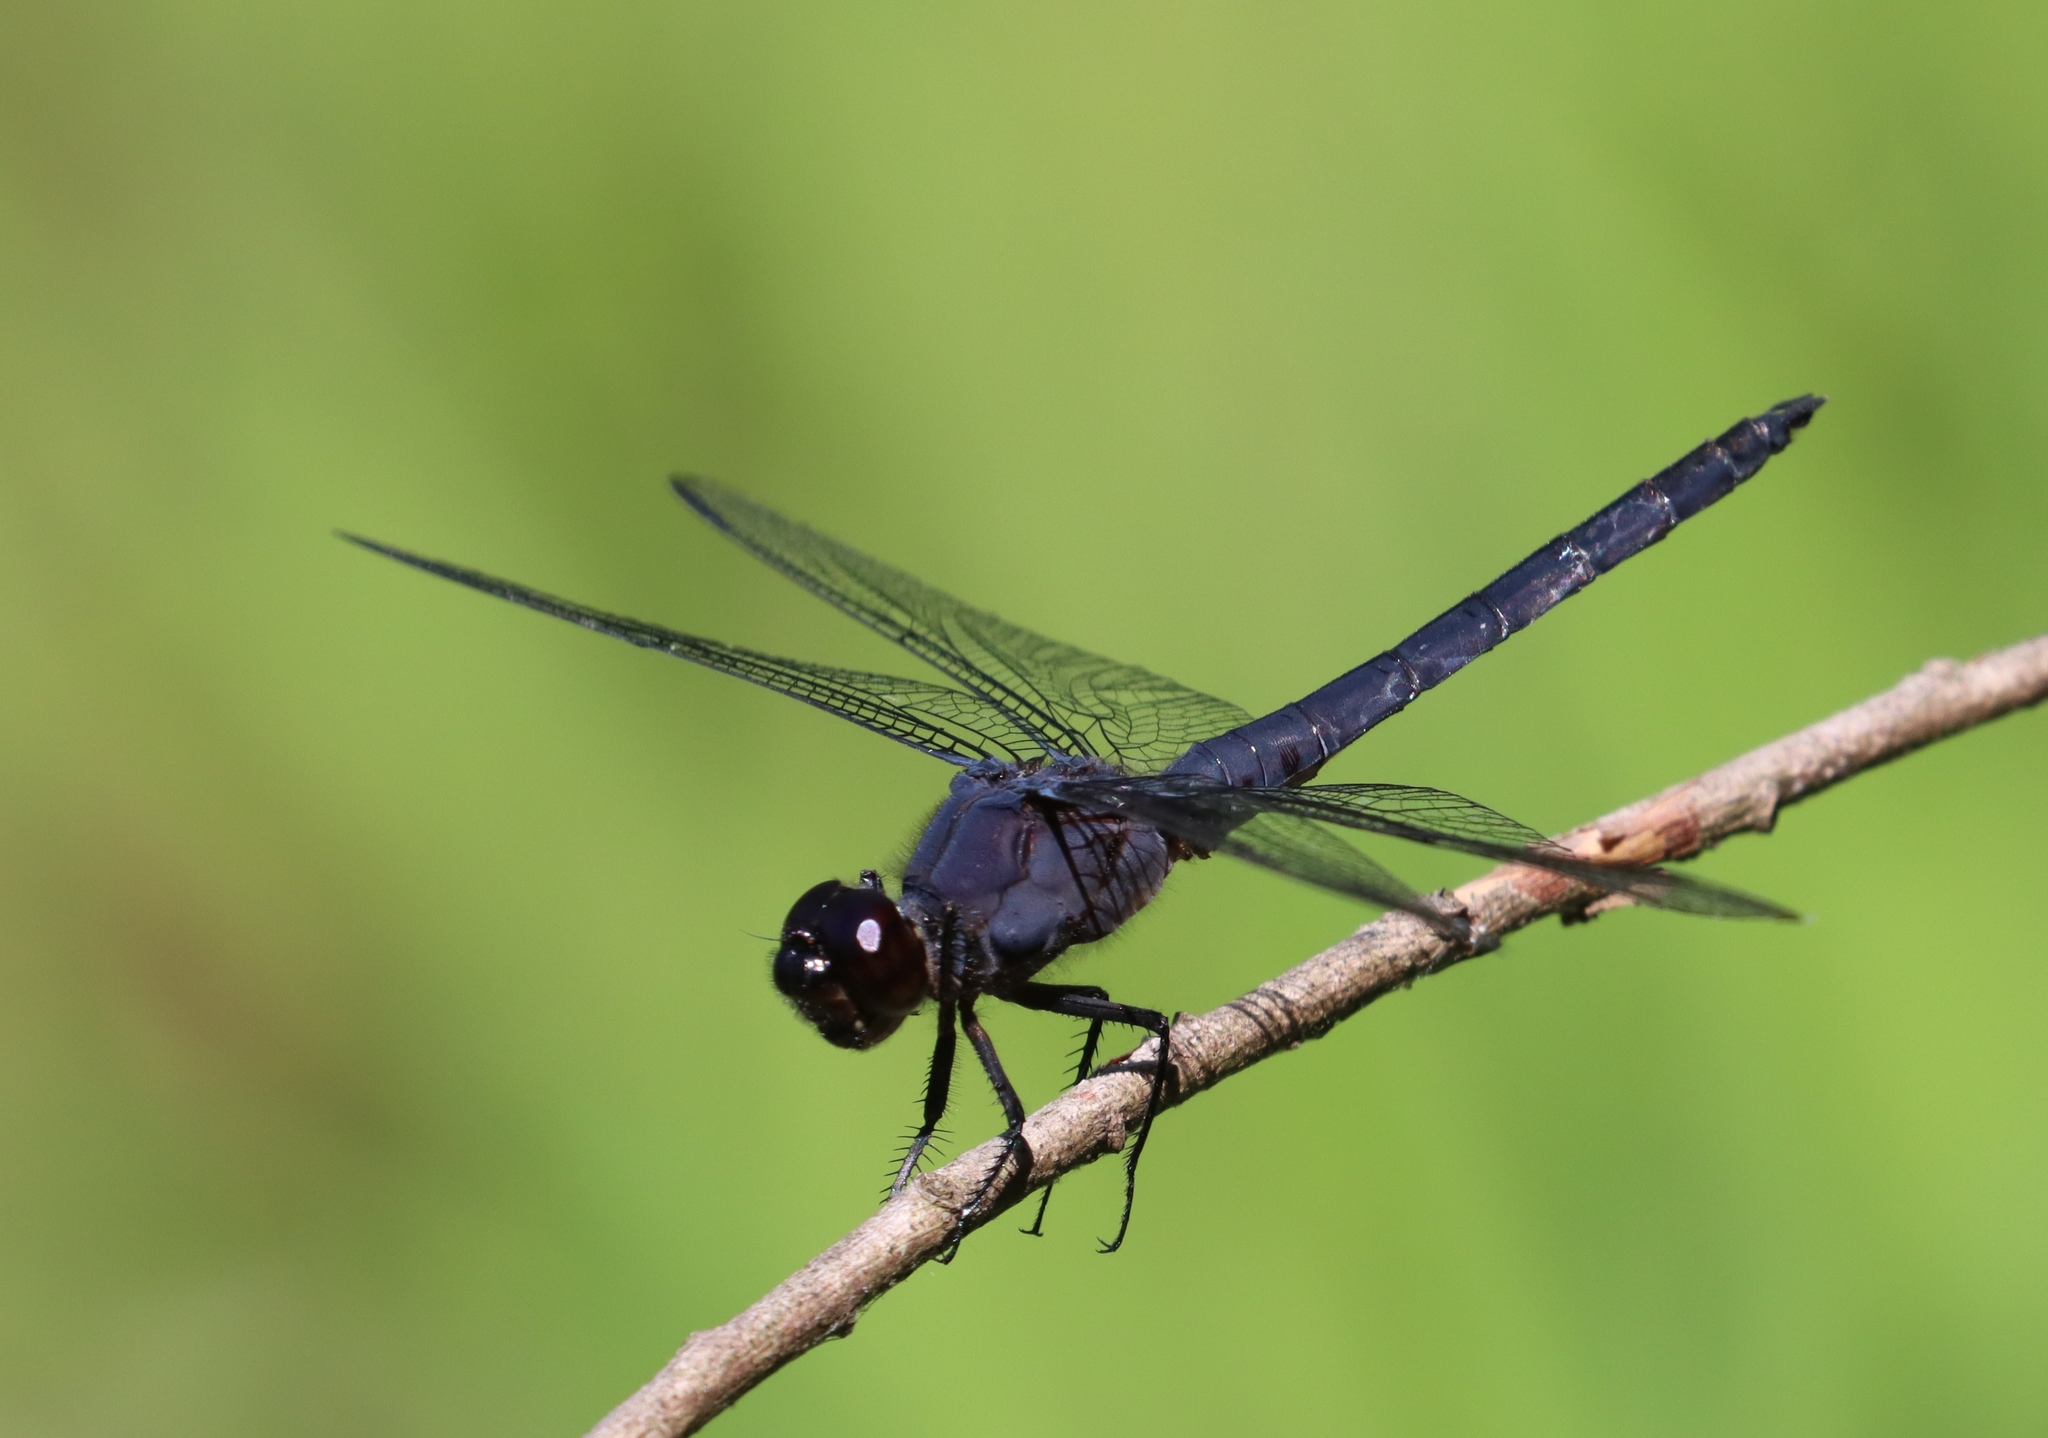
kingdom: Animalia
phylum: Arthropoda
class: Insecta
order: Odonata
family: Libellulidae
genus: Libellula
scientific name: Libellula incesta
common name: Slaty skimmer
